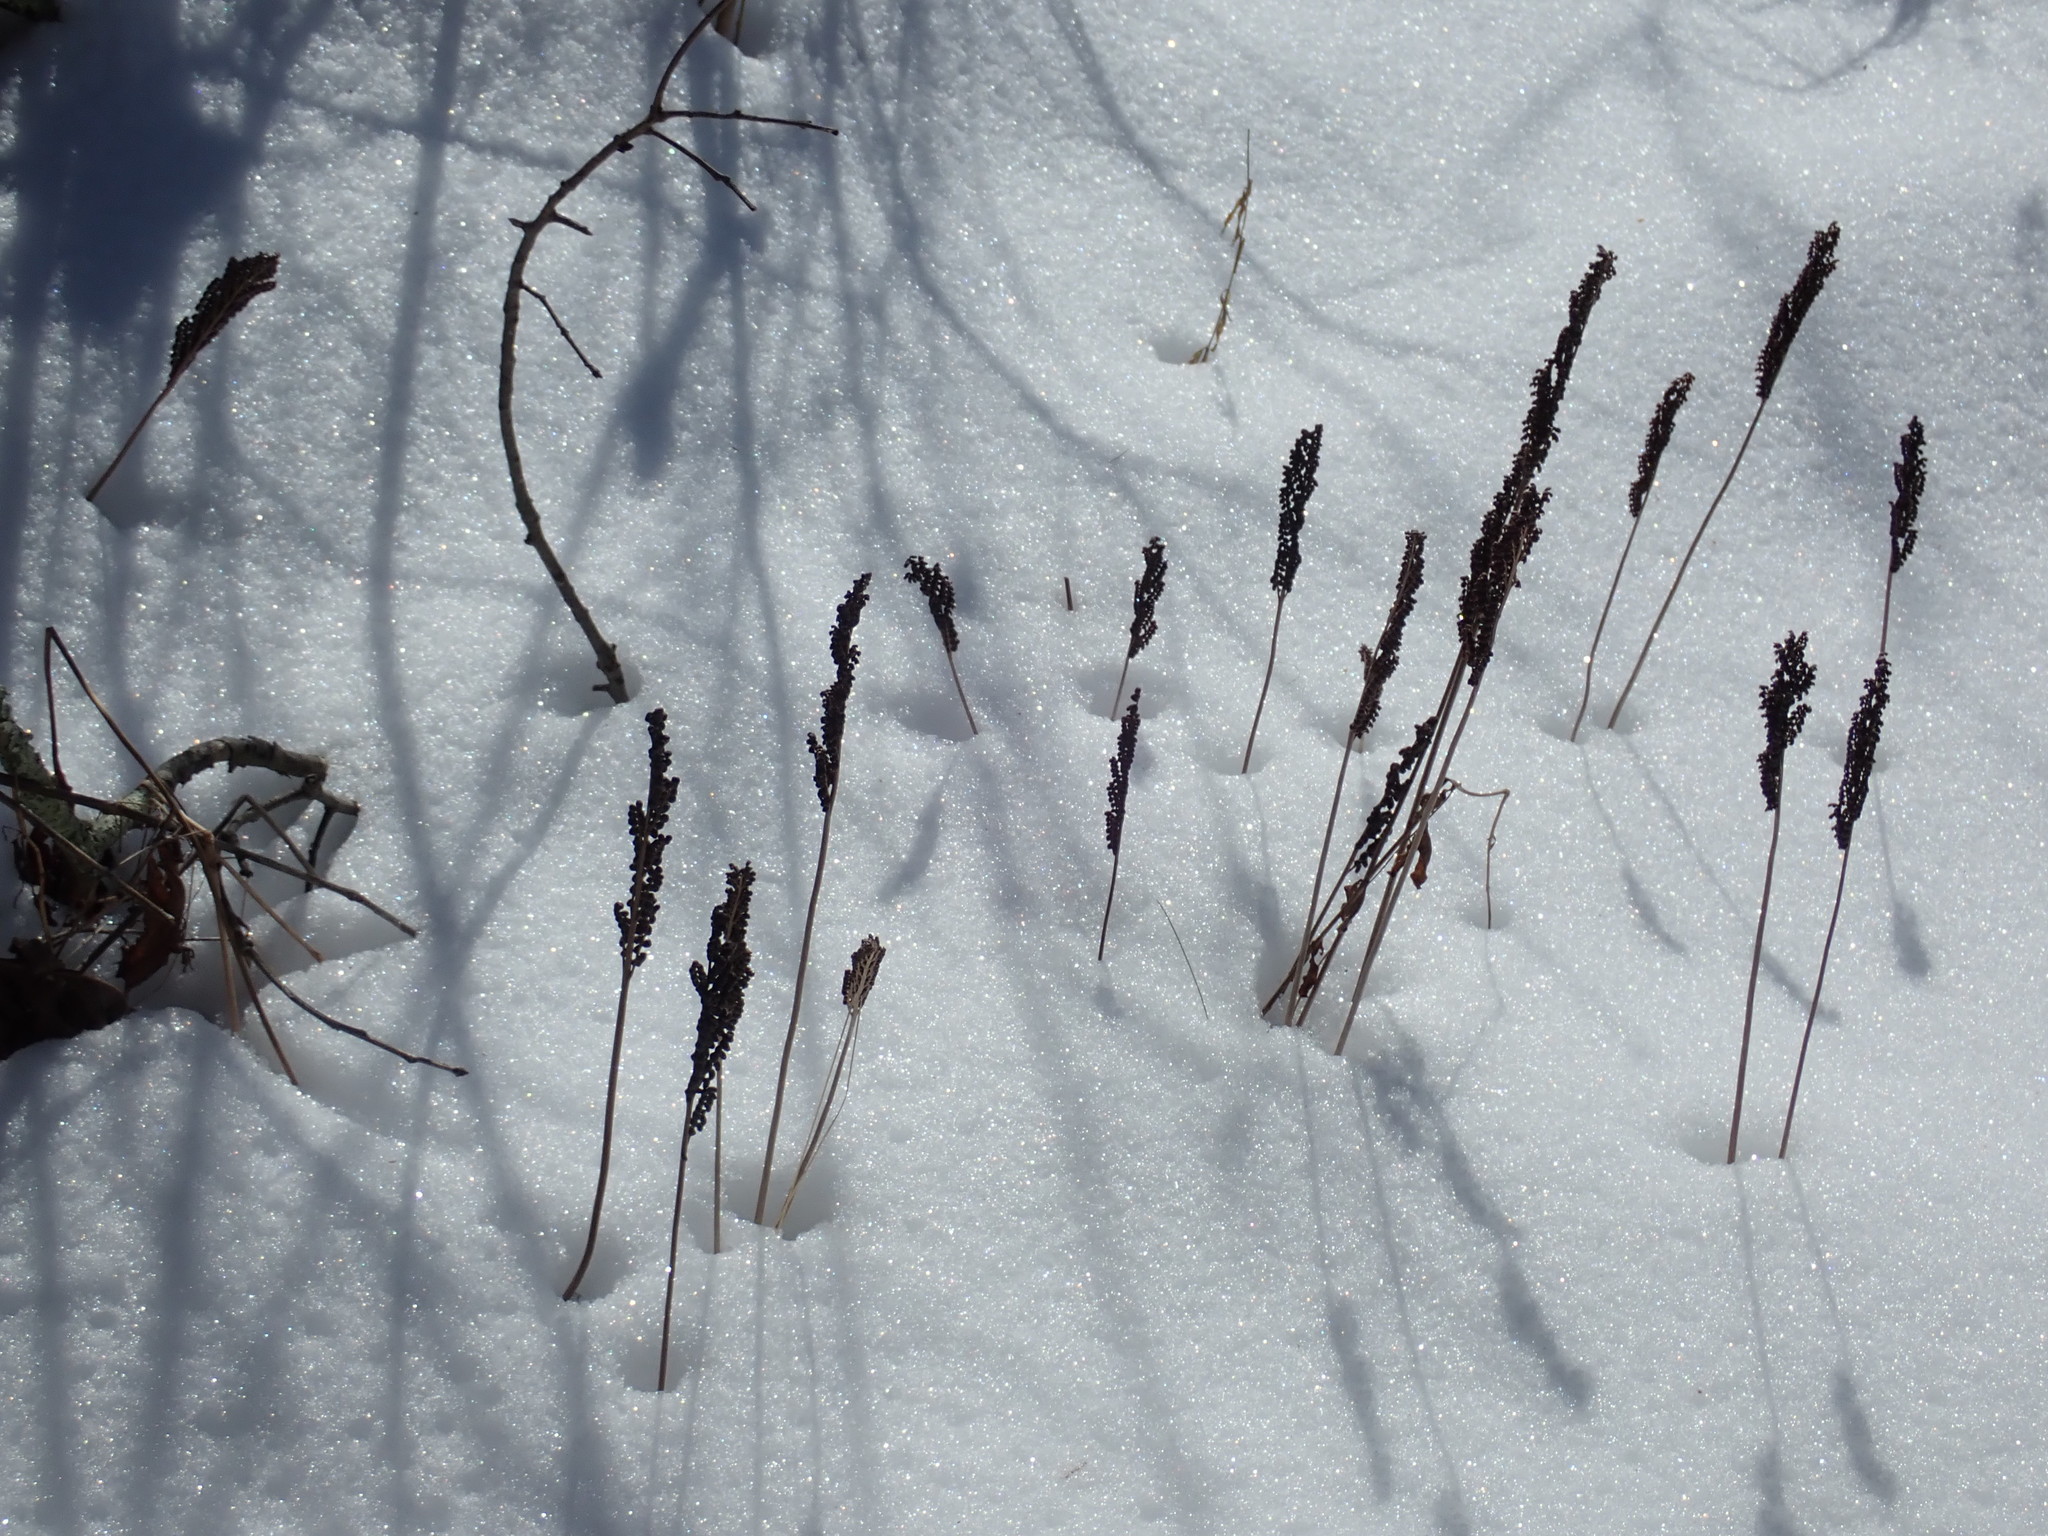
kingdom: Plantae
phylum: Tracheophyta
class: Polypodiopsida
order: Polypodiales
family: Onocleaceae
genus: Onoclea
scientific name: Onoclea sensibilis
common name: Sensitive fern
